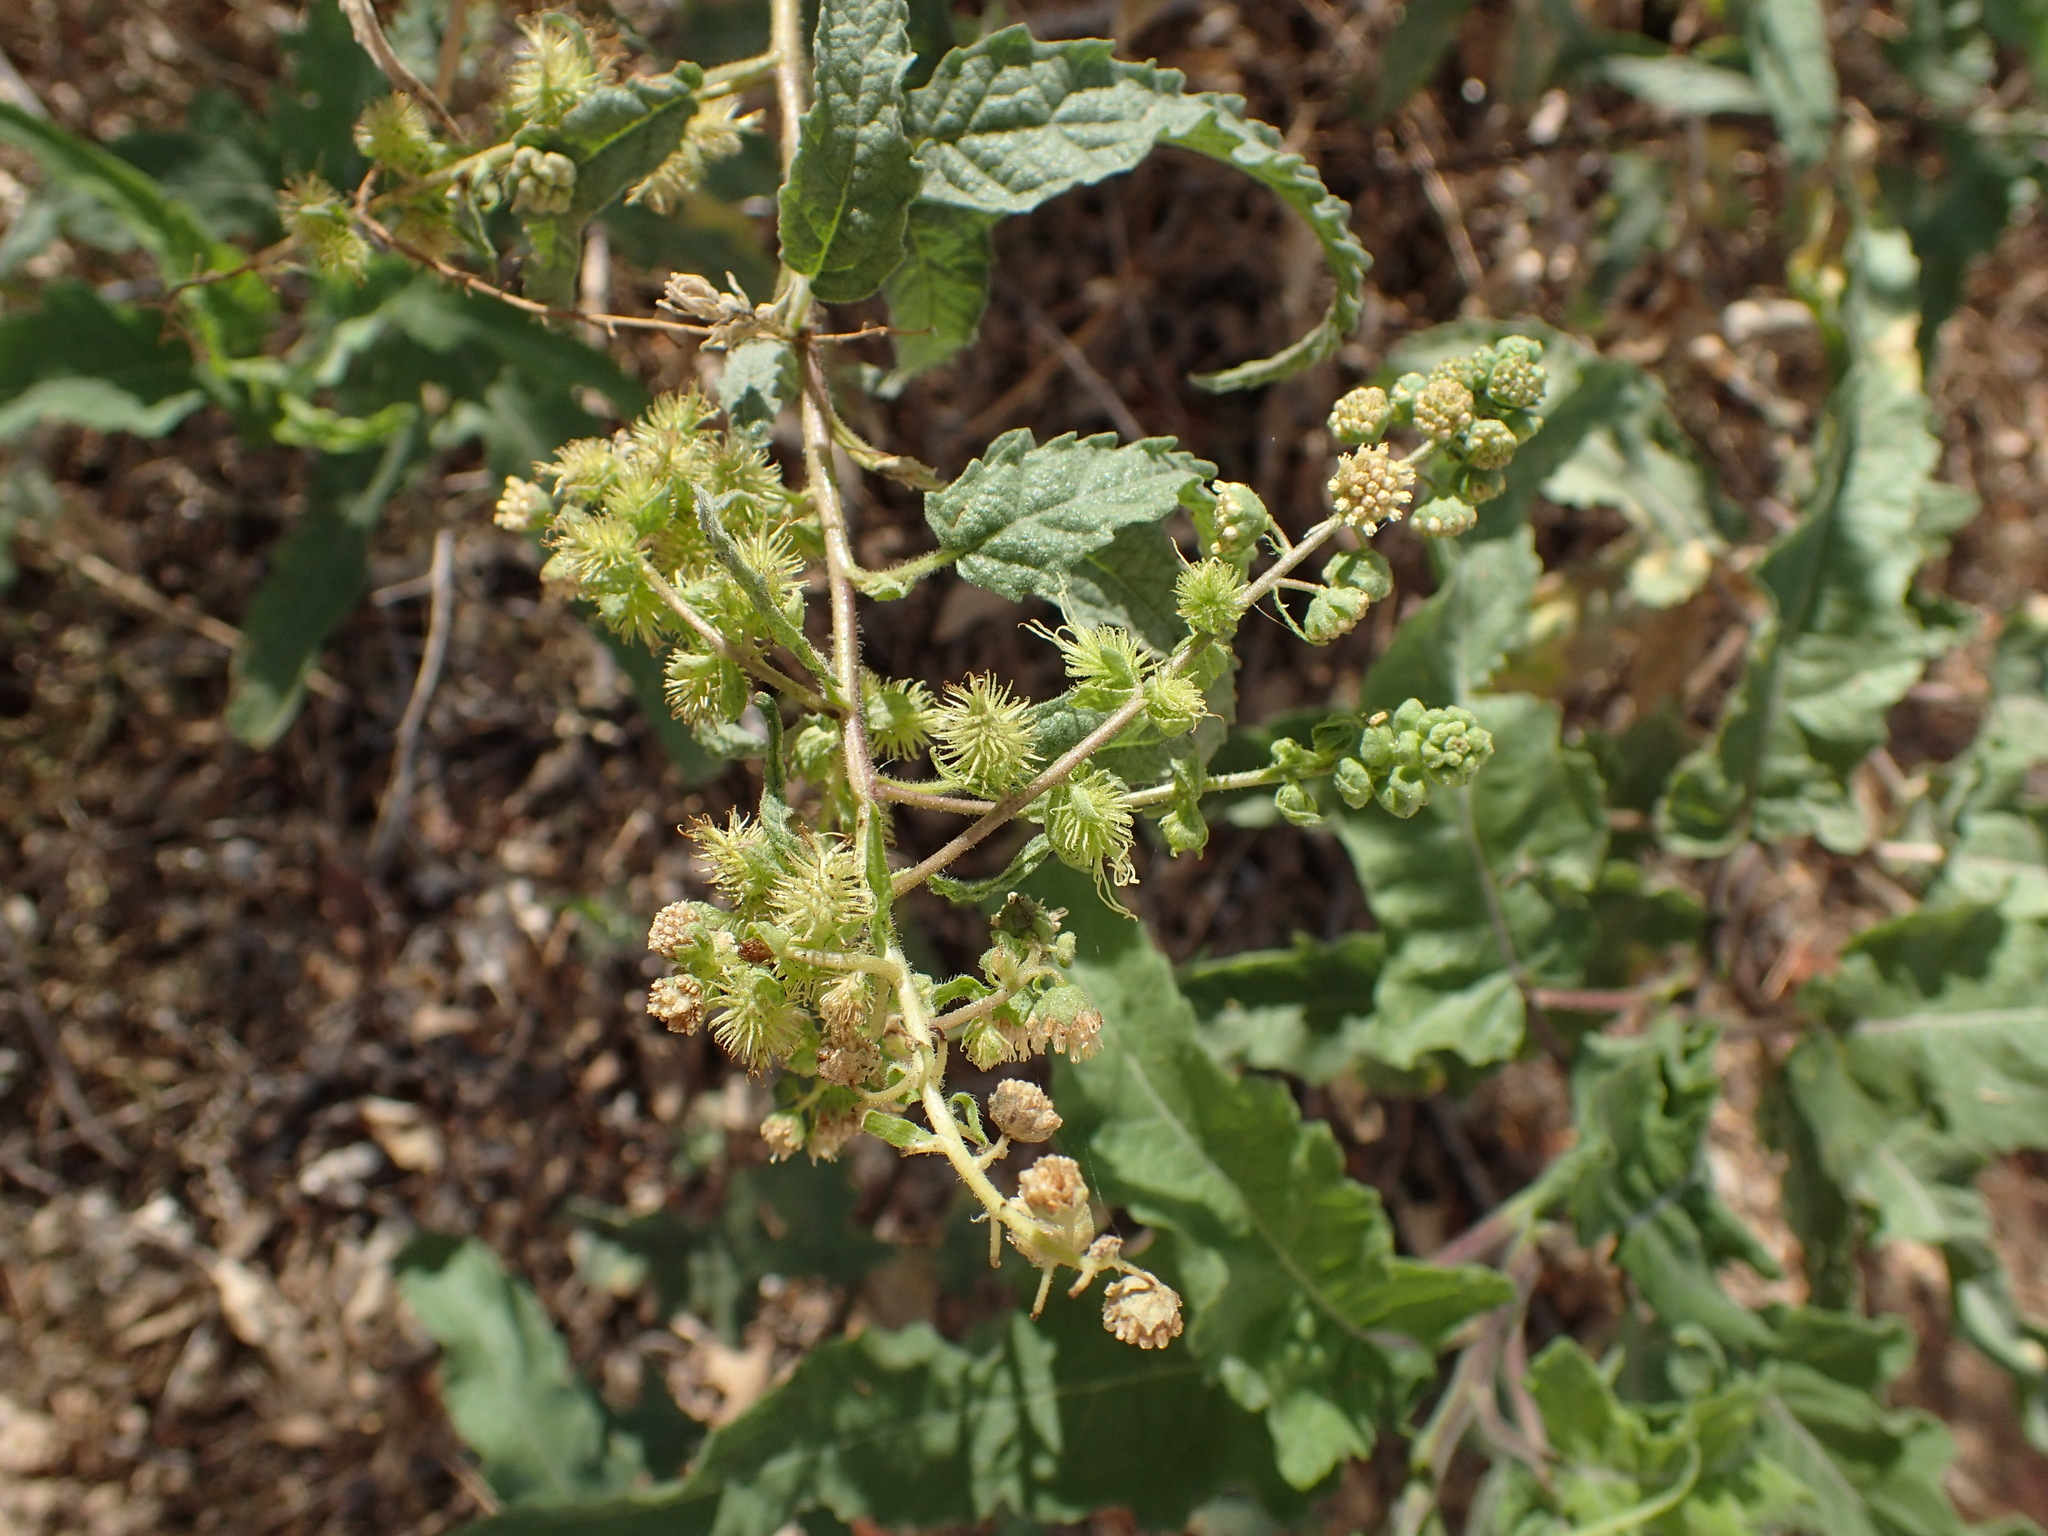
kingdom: Plantae
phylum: Tracheophyta
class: Magnoliopsida
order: Asterales
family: Asteraceae
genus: Ambrosia
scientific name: Ambrosia ambrosioides
